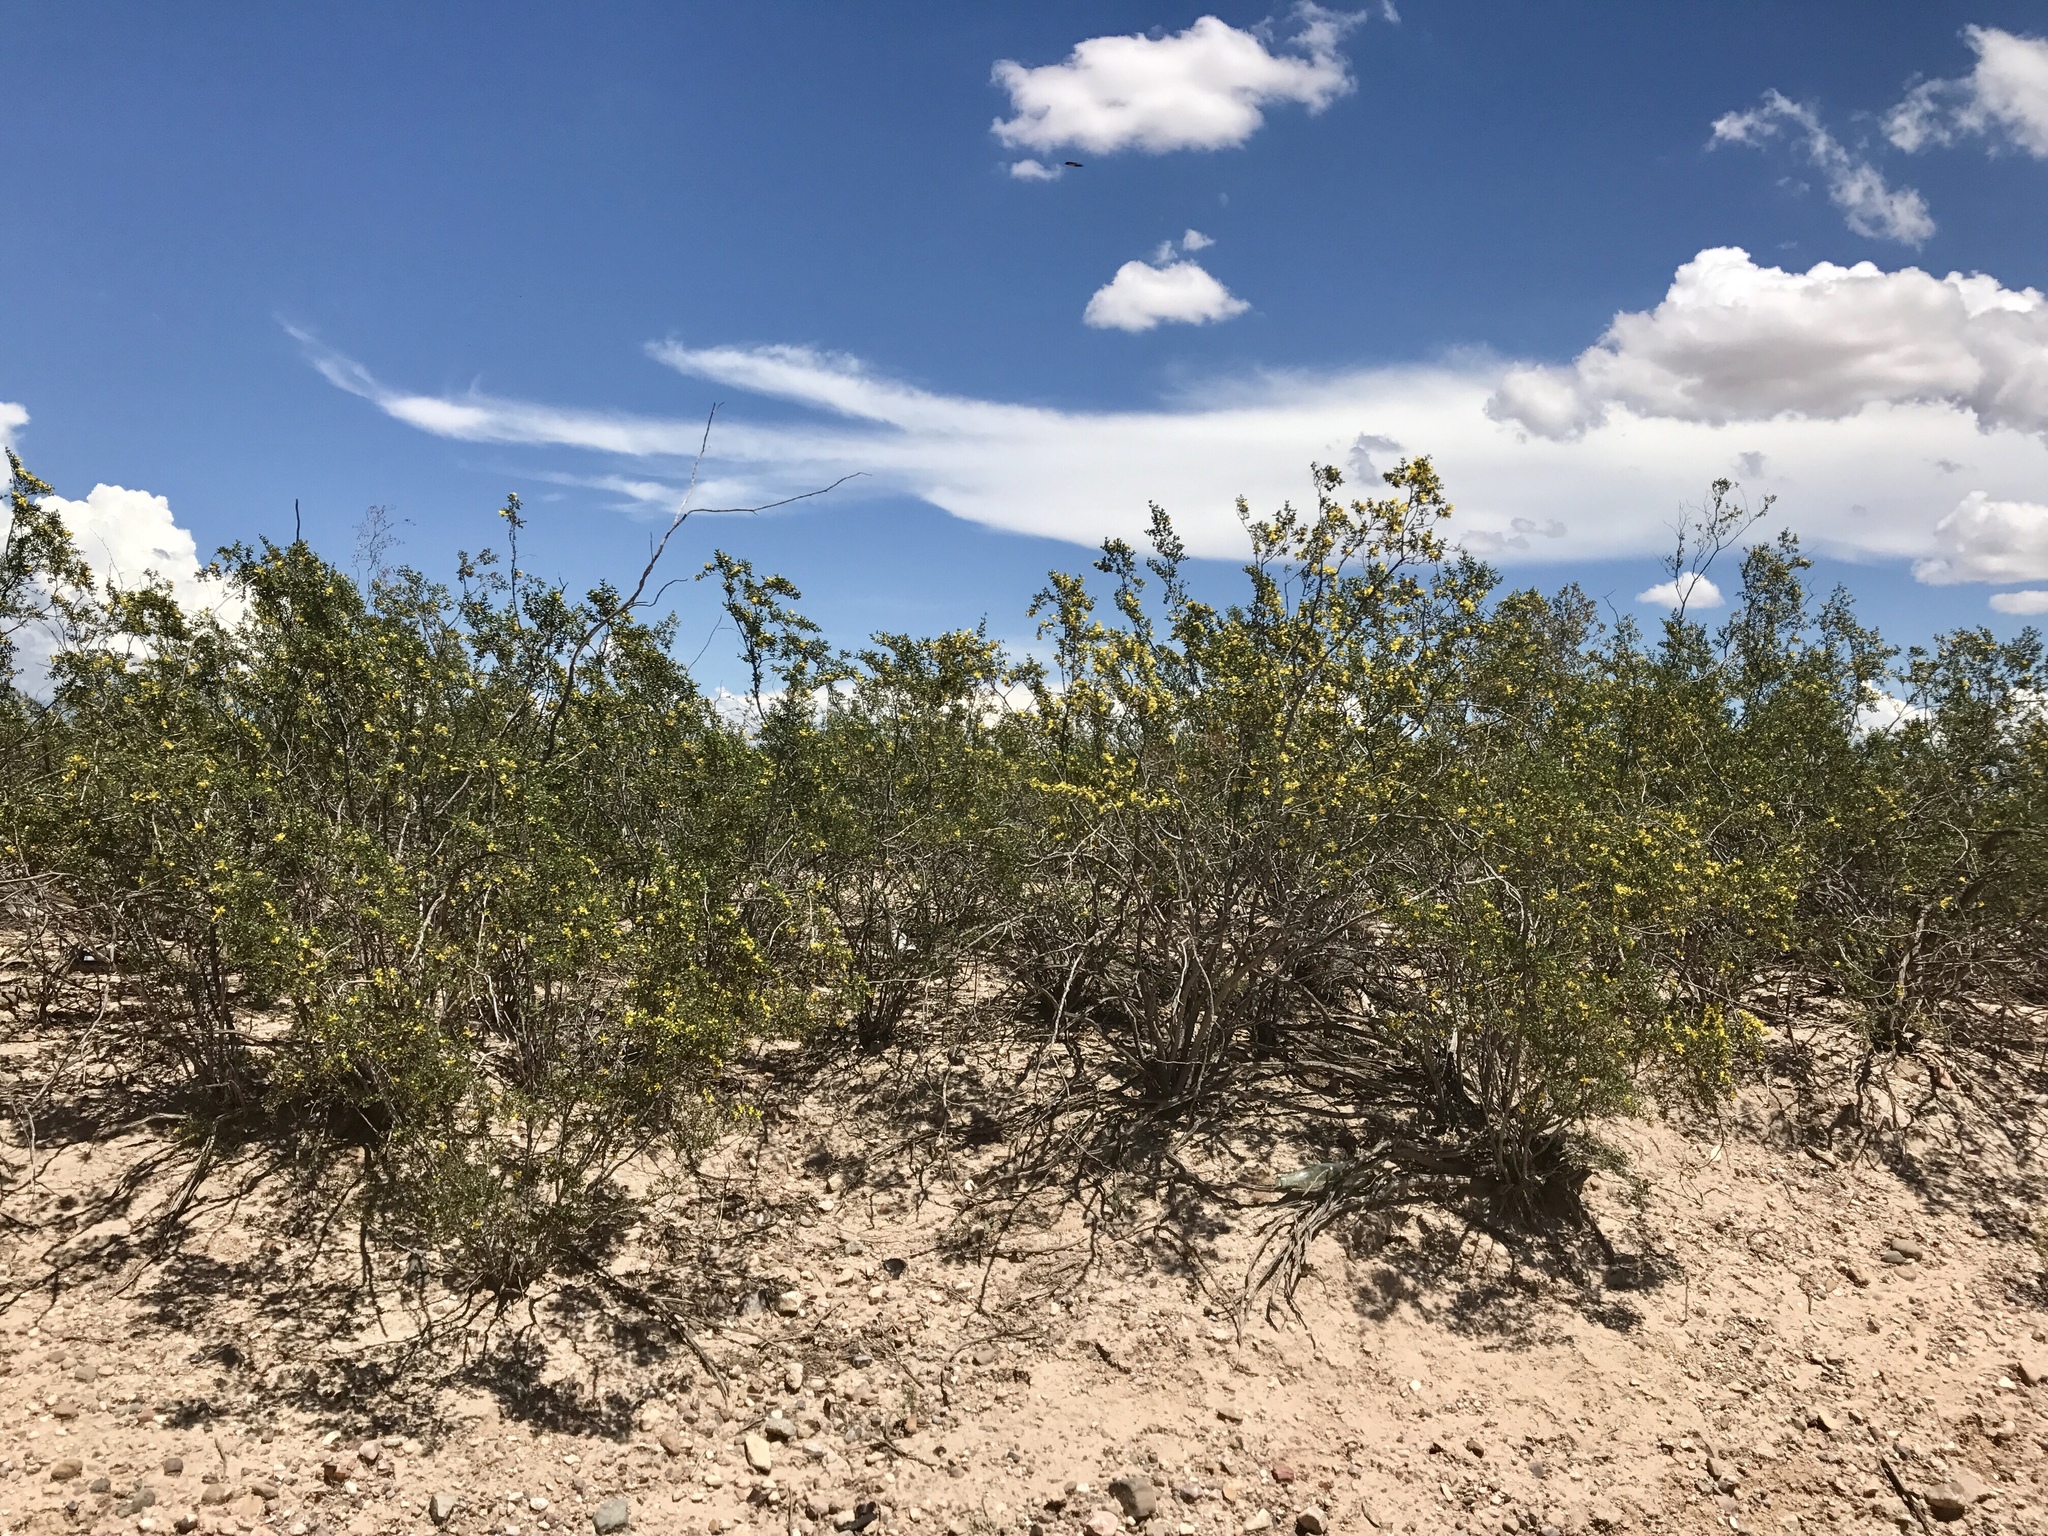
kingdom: Plantae
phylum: Tracheophyta
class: Magnoliopsida
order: Zygophyllales
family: Zygophyllaceae
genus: Larrea
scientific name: Larrea tridentata
